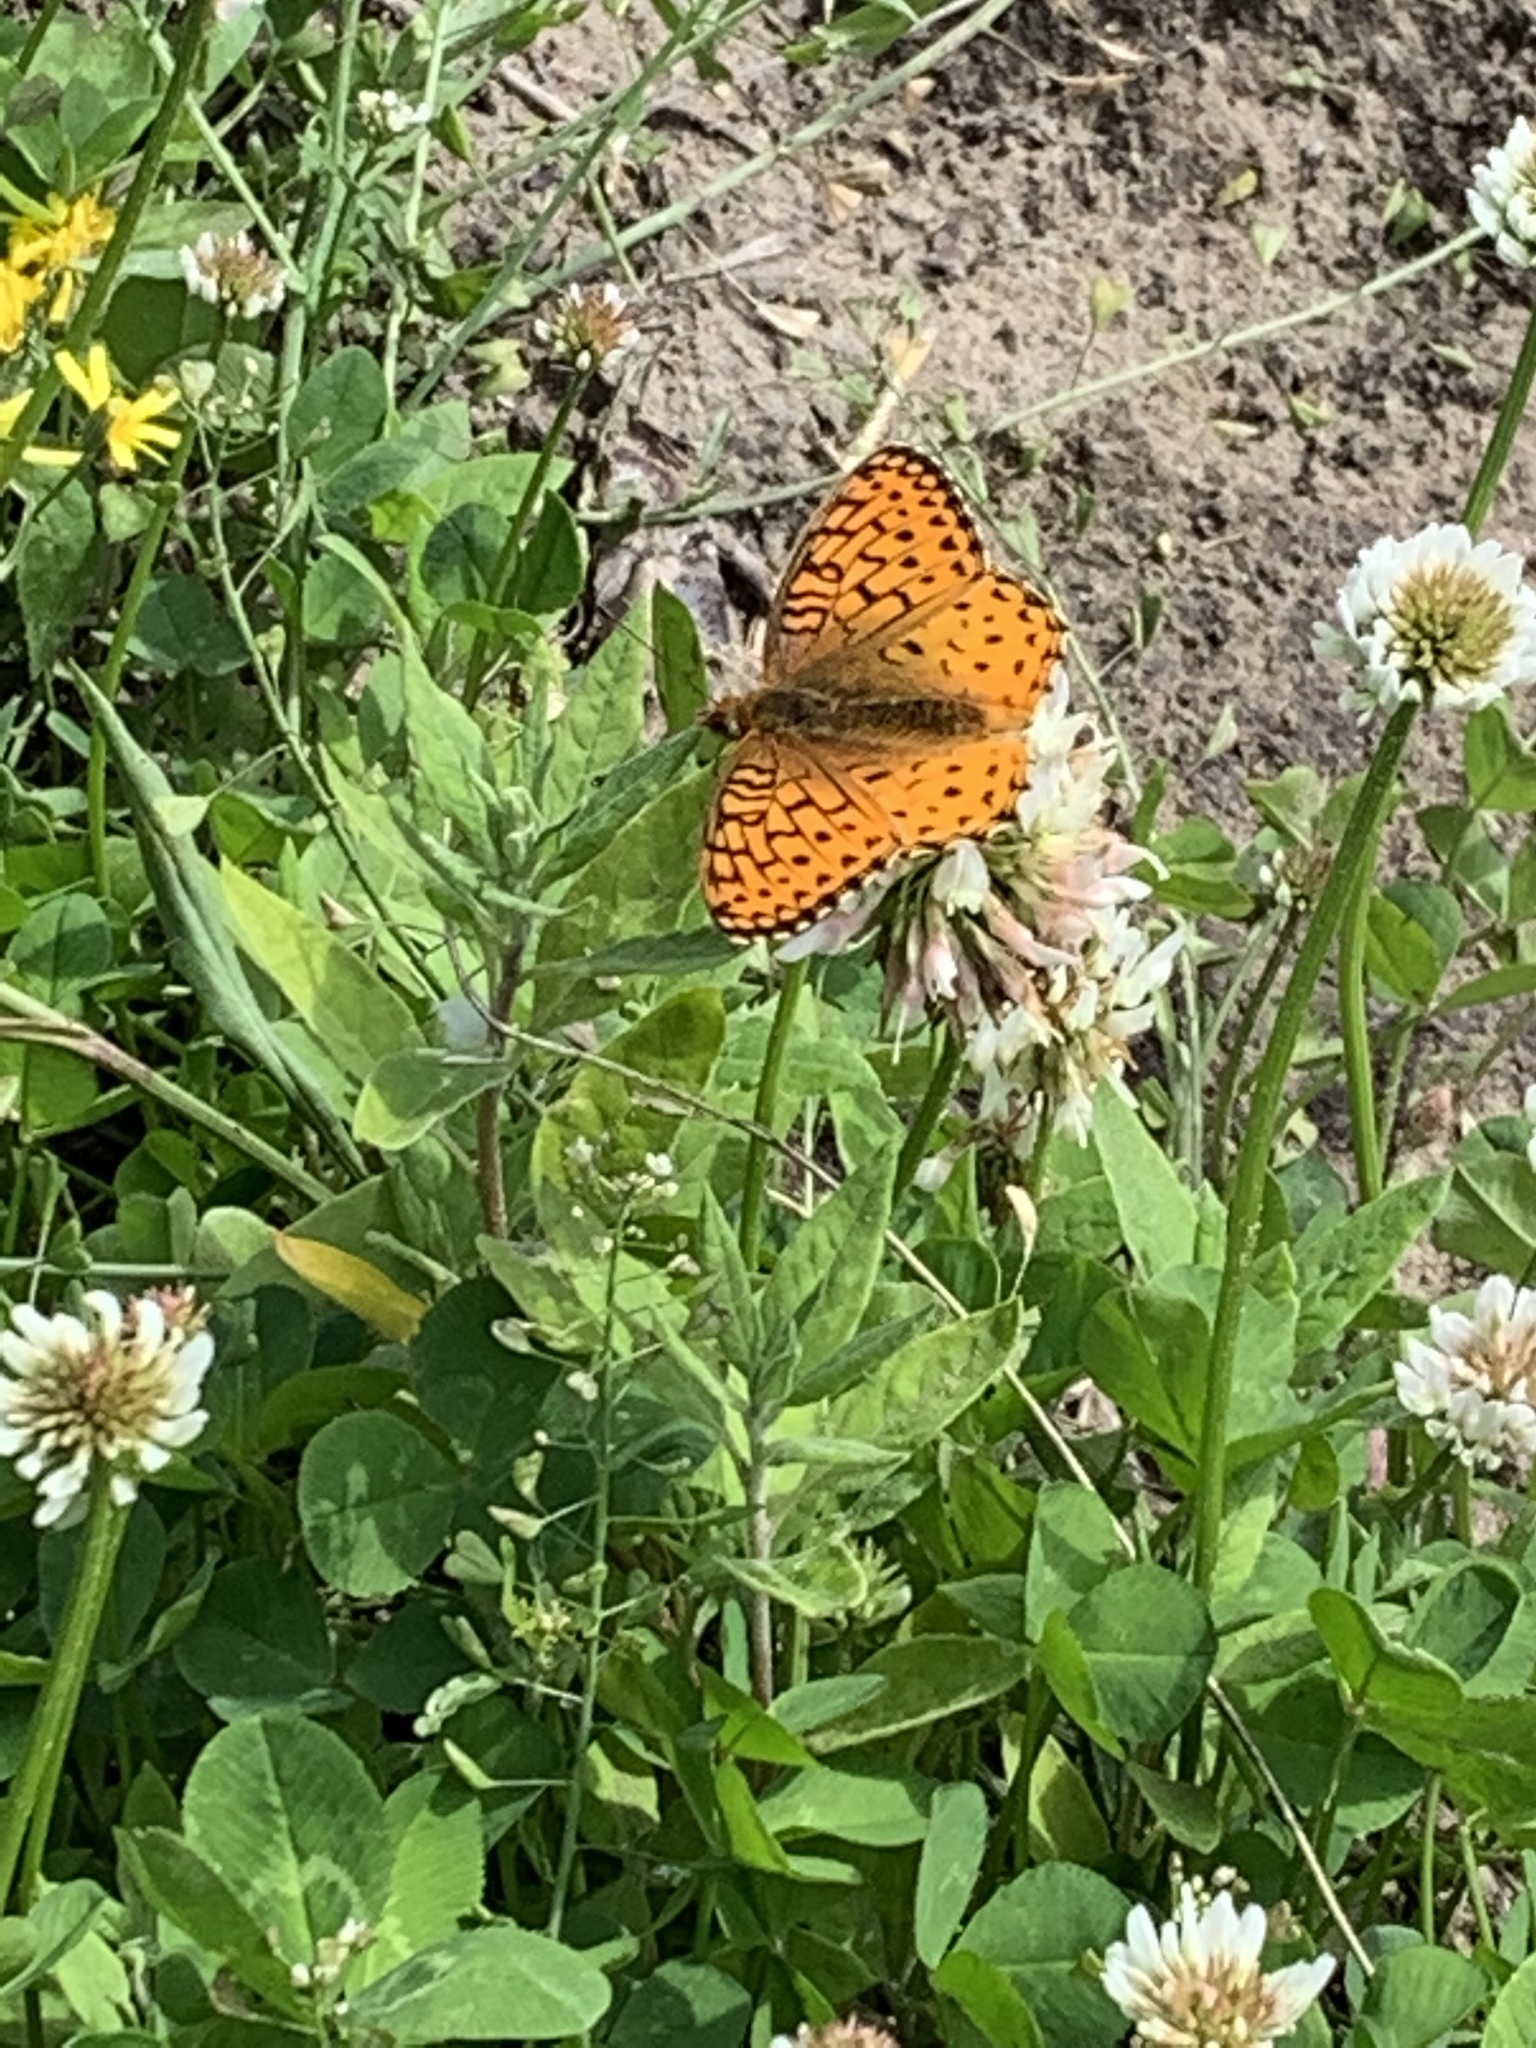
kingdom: Animalia
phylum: Arthropoda
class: Insecta
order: Lepidoptera
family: Nymphalidae
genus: Speyeria
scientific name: Speyeria atlantis
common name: Atlantis fritillary
